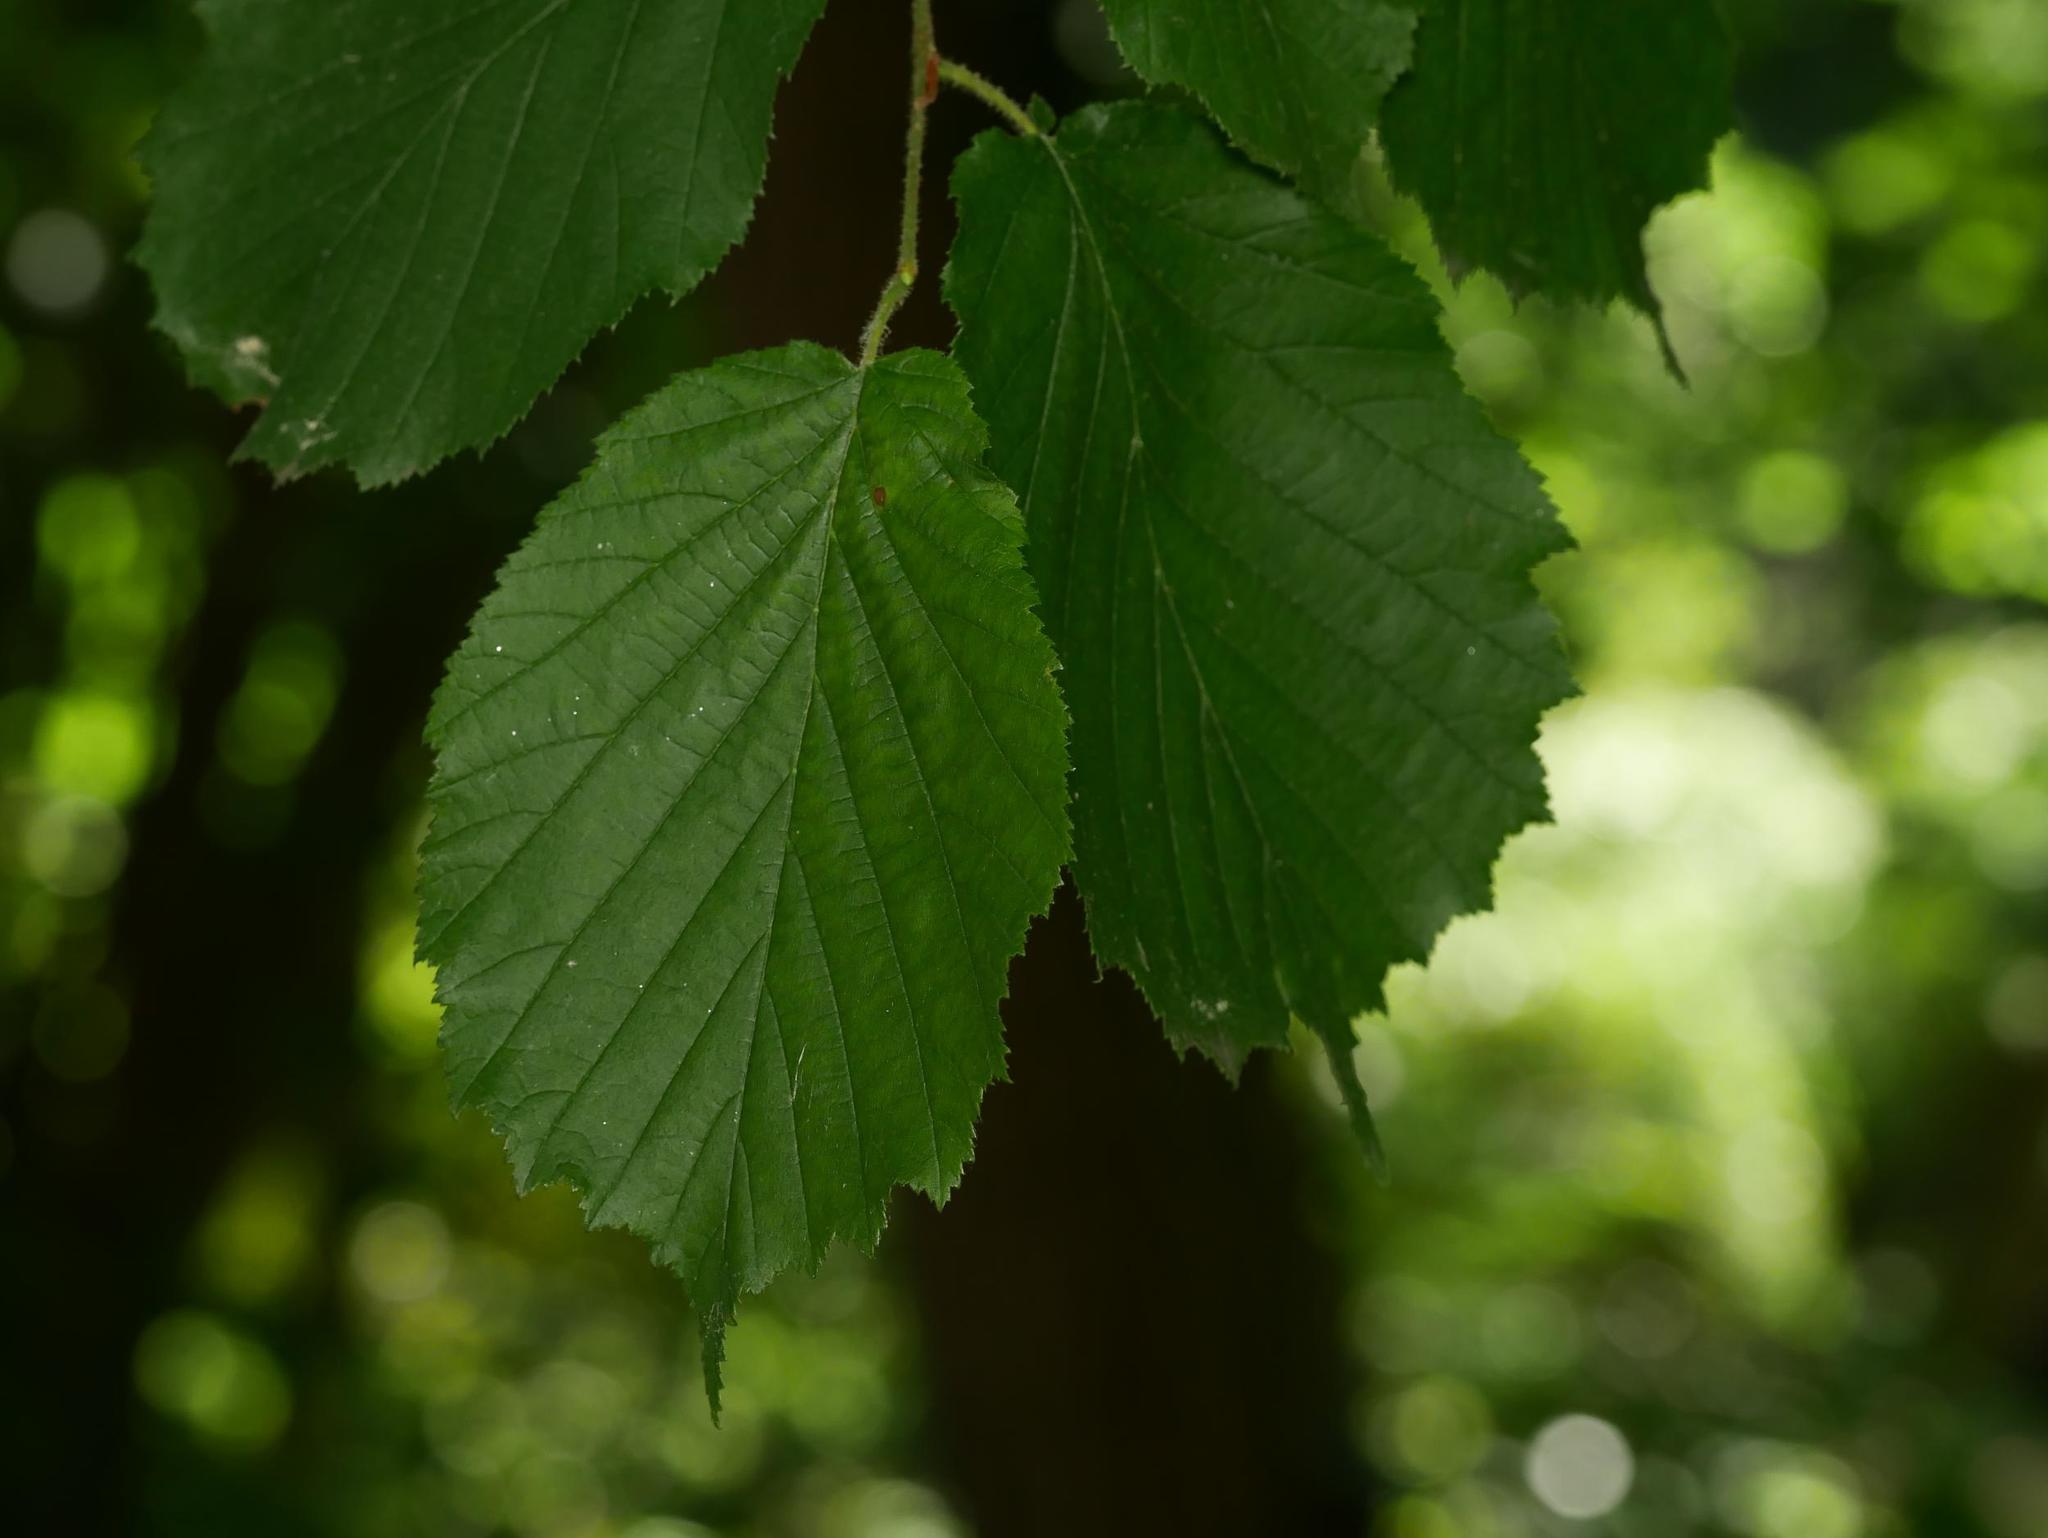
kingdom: Plantae
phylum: Tracheophyta
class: Magnoliopsida
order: Fagales
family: Betulaceae
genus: Corylus
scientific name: Corylus avellana
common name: European hazel
